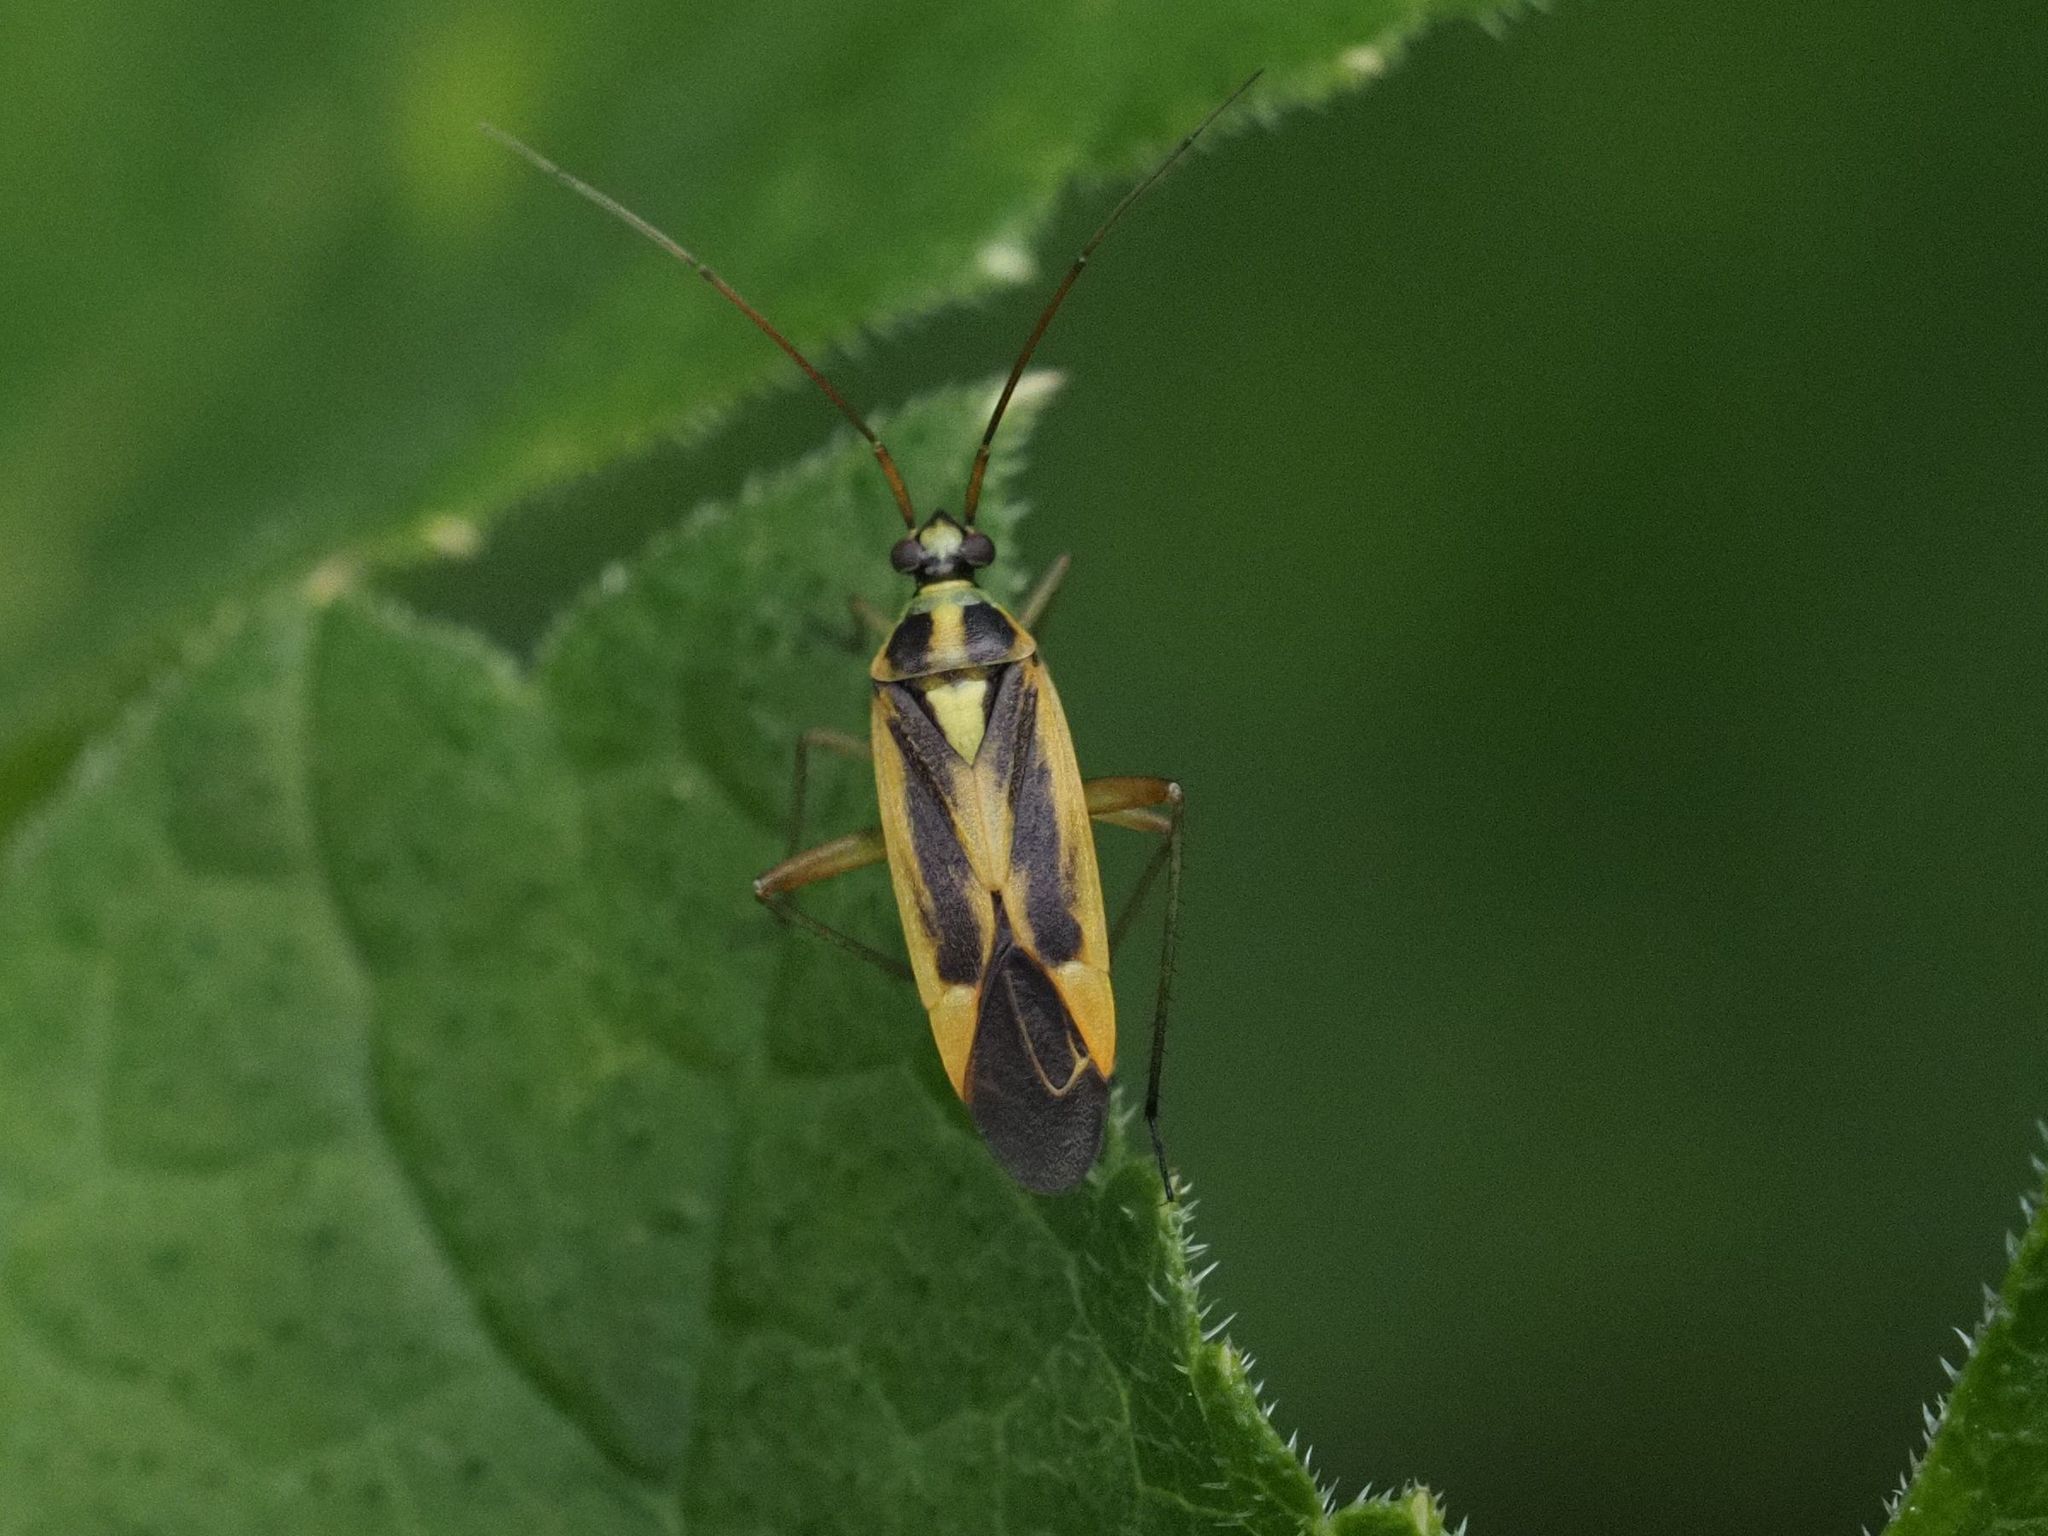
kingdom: Animalia
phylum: Arthropoda
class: Insecta
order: Hemiptera
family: Miridae
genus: Stenotus
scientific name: Stenotus binotatus
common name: Plant bug
